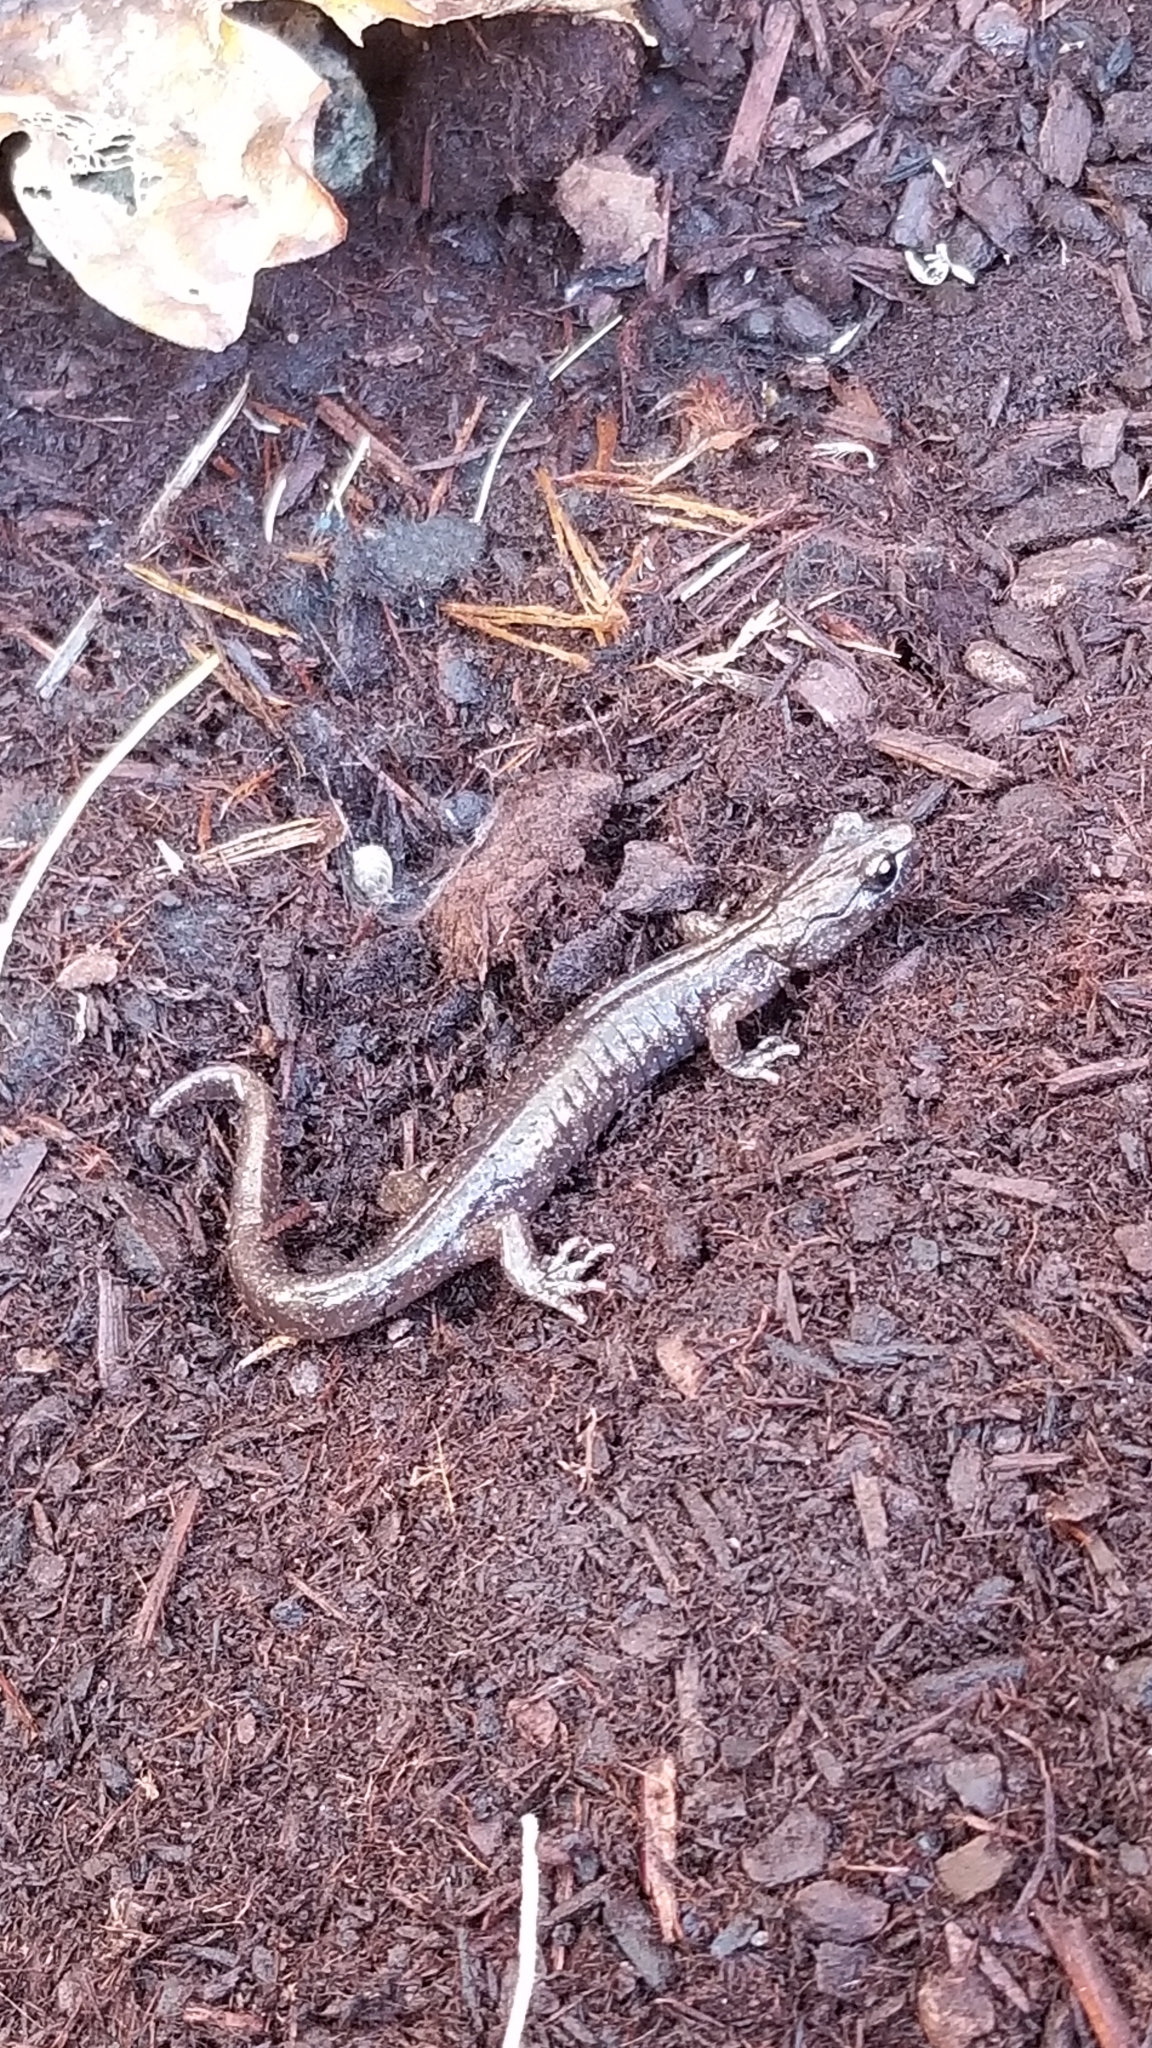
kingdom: Animalia
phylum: Chordata
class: Amphibia
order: Caudata
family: Plethodontidae
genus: Aneides
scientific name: Aneides vagrans
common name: Wandering salamander
